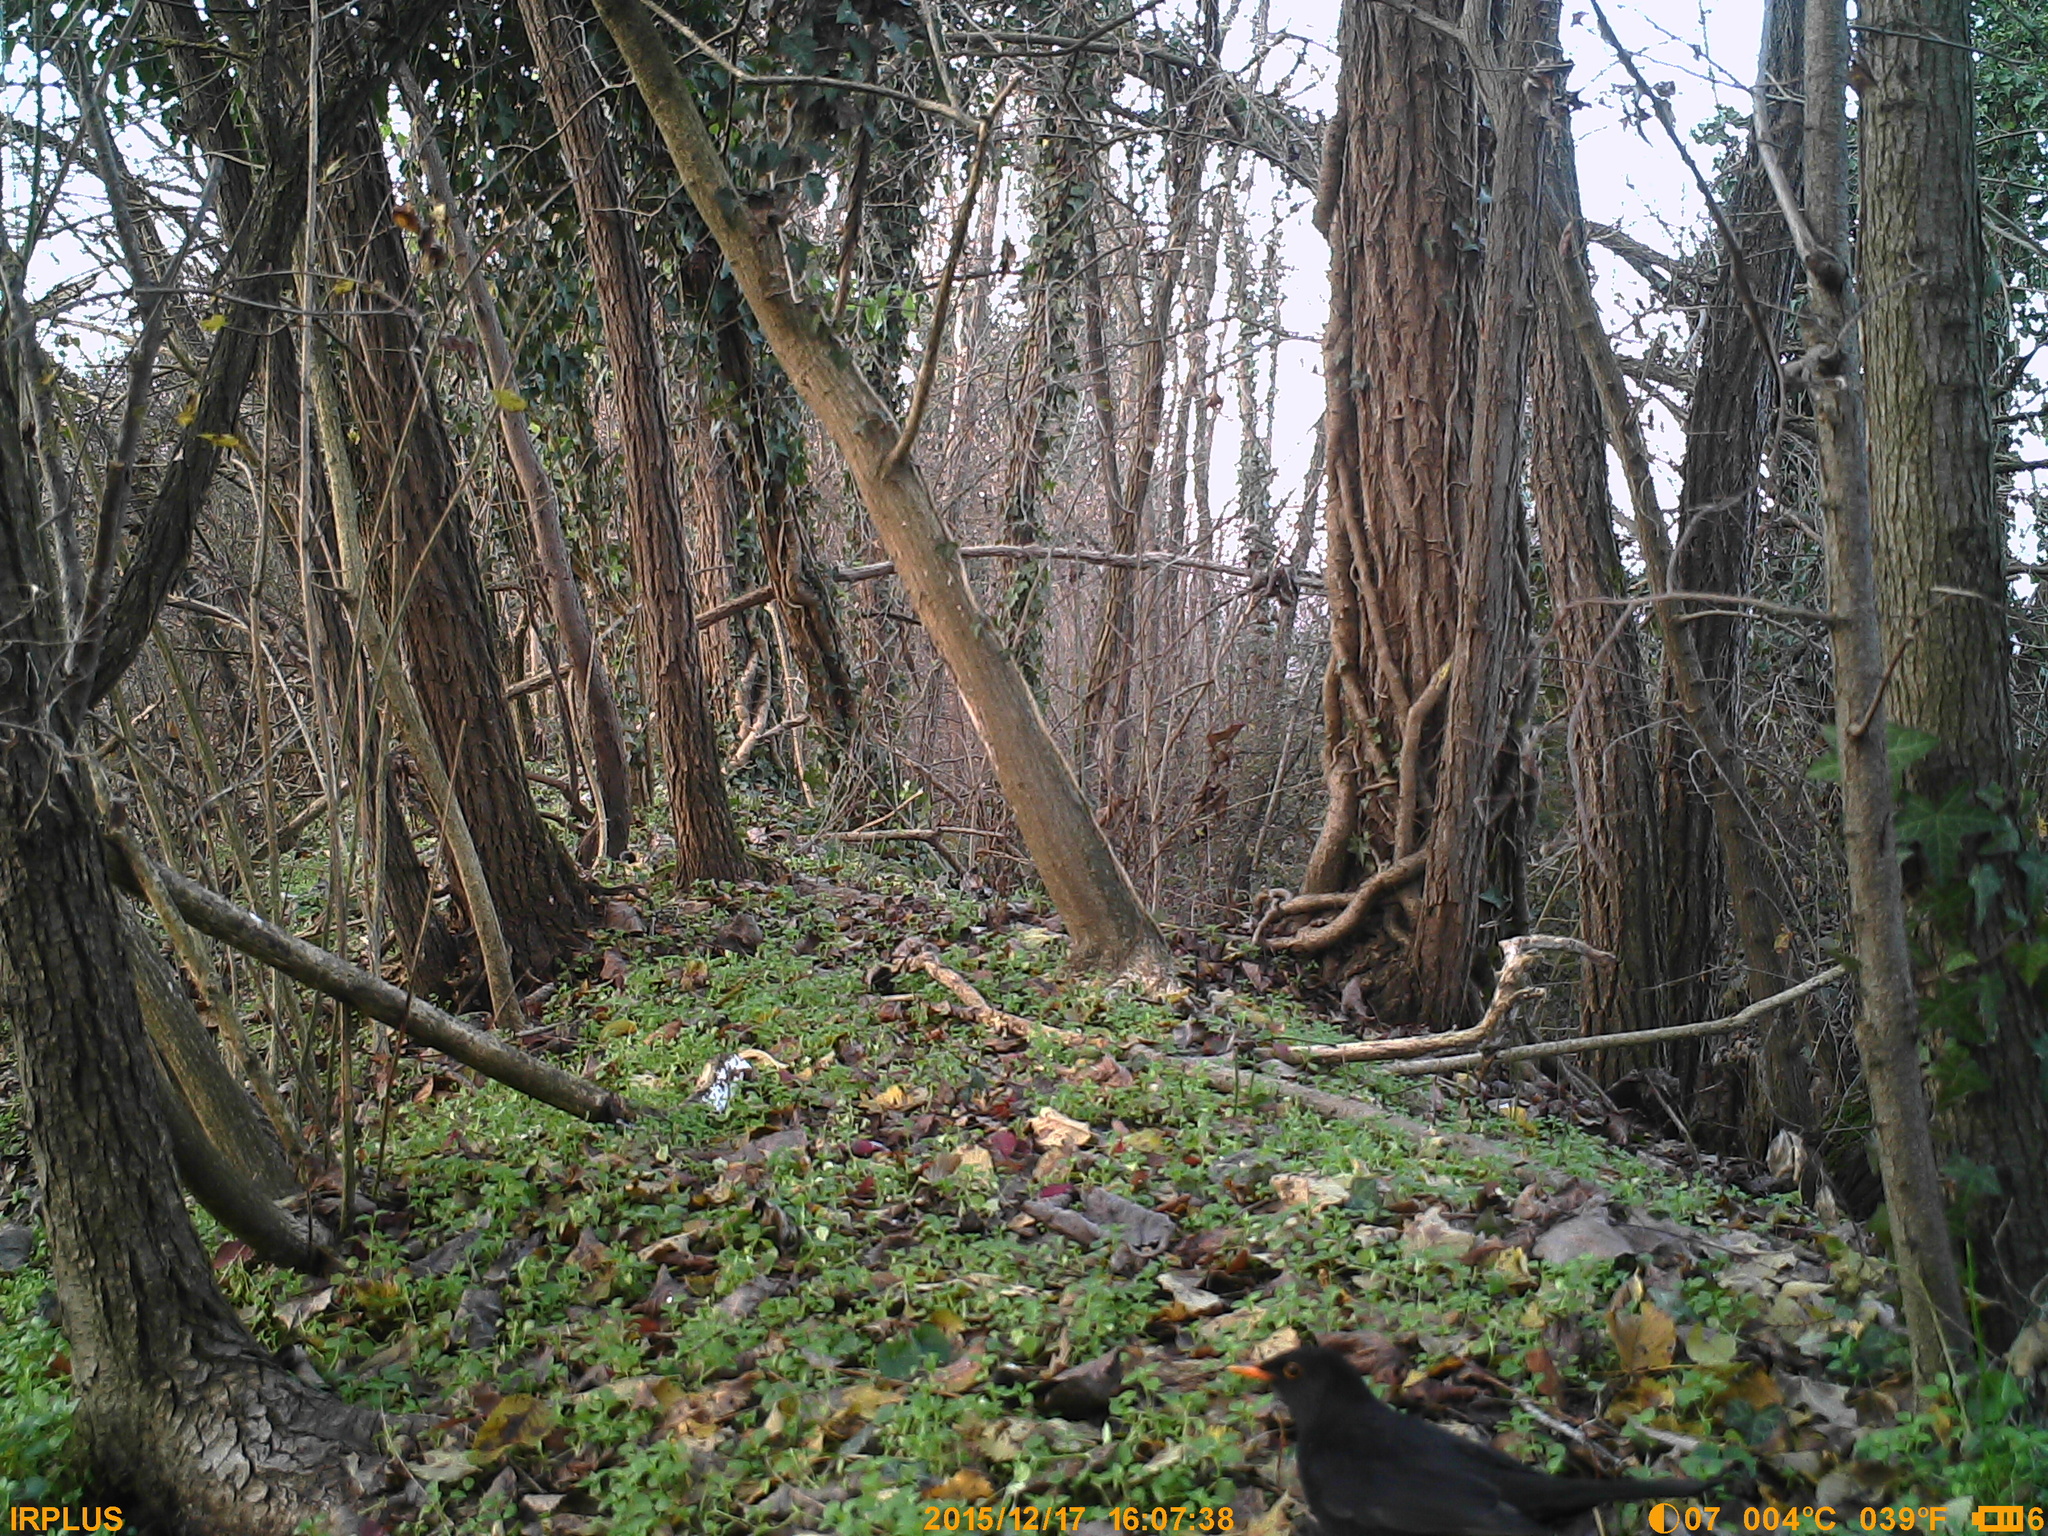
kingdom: Animalia
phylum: Chordata
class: Aves
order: Passeriformes
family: Turdidae
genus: Turdus
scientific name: Turdus merula
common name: Common blackbird
